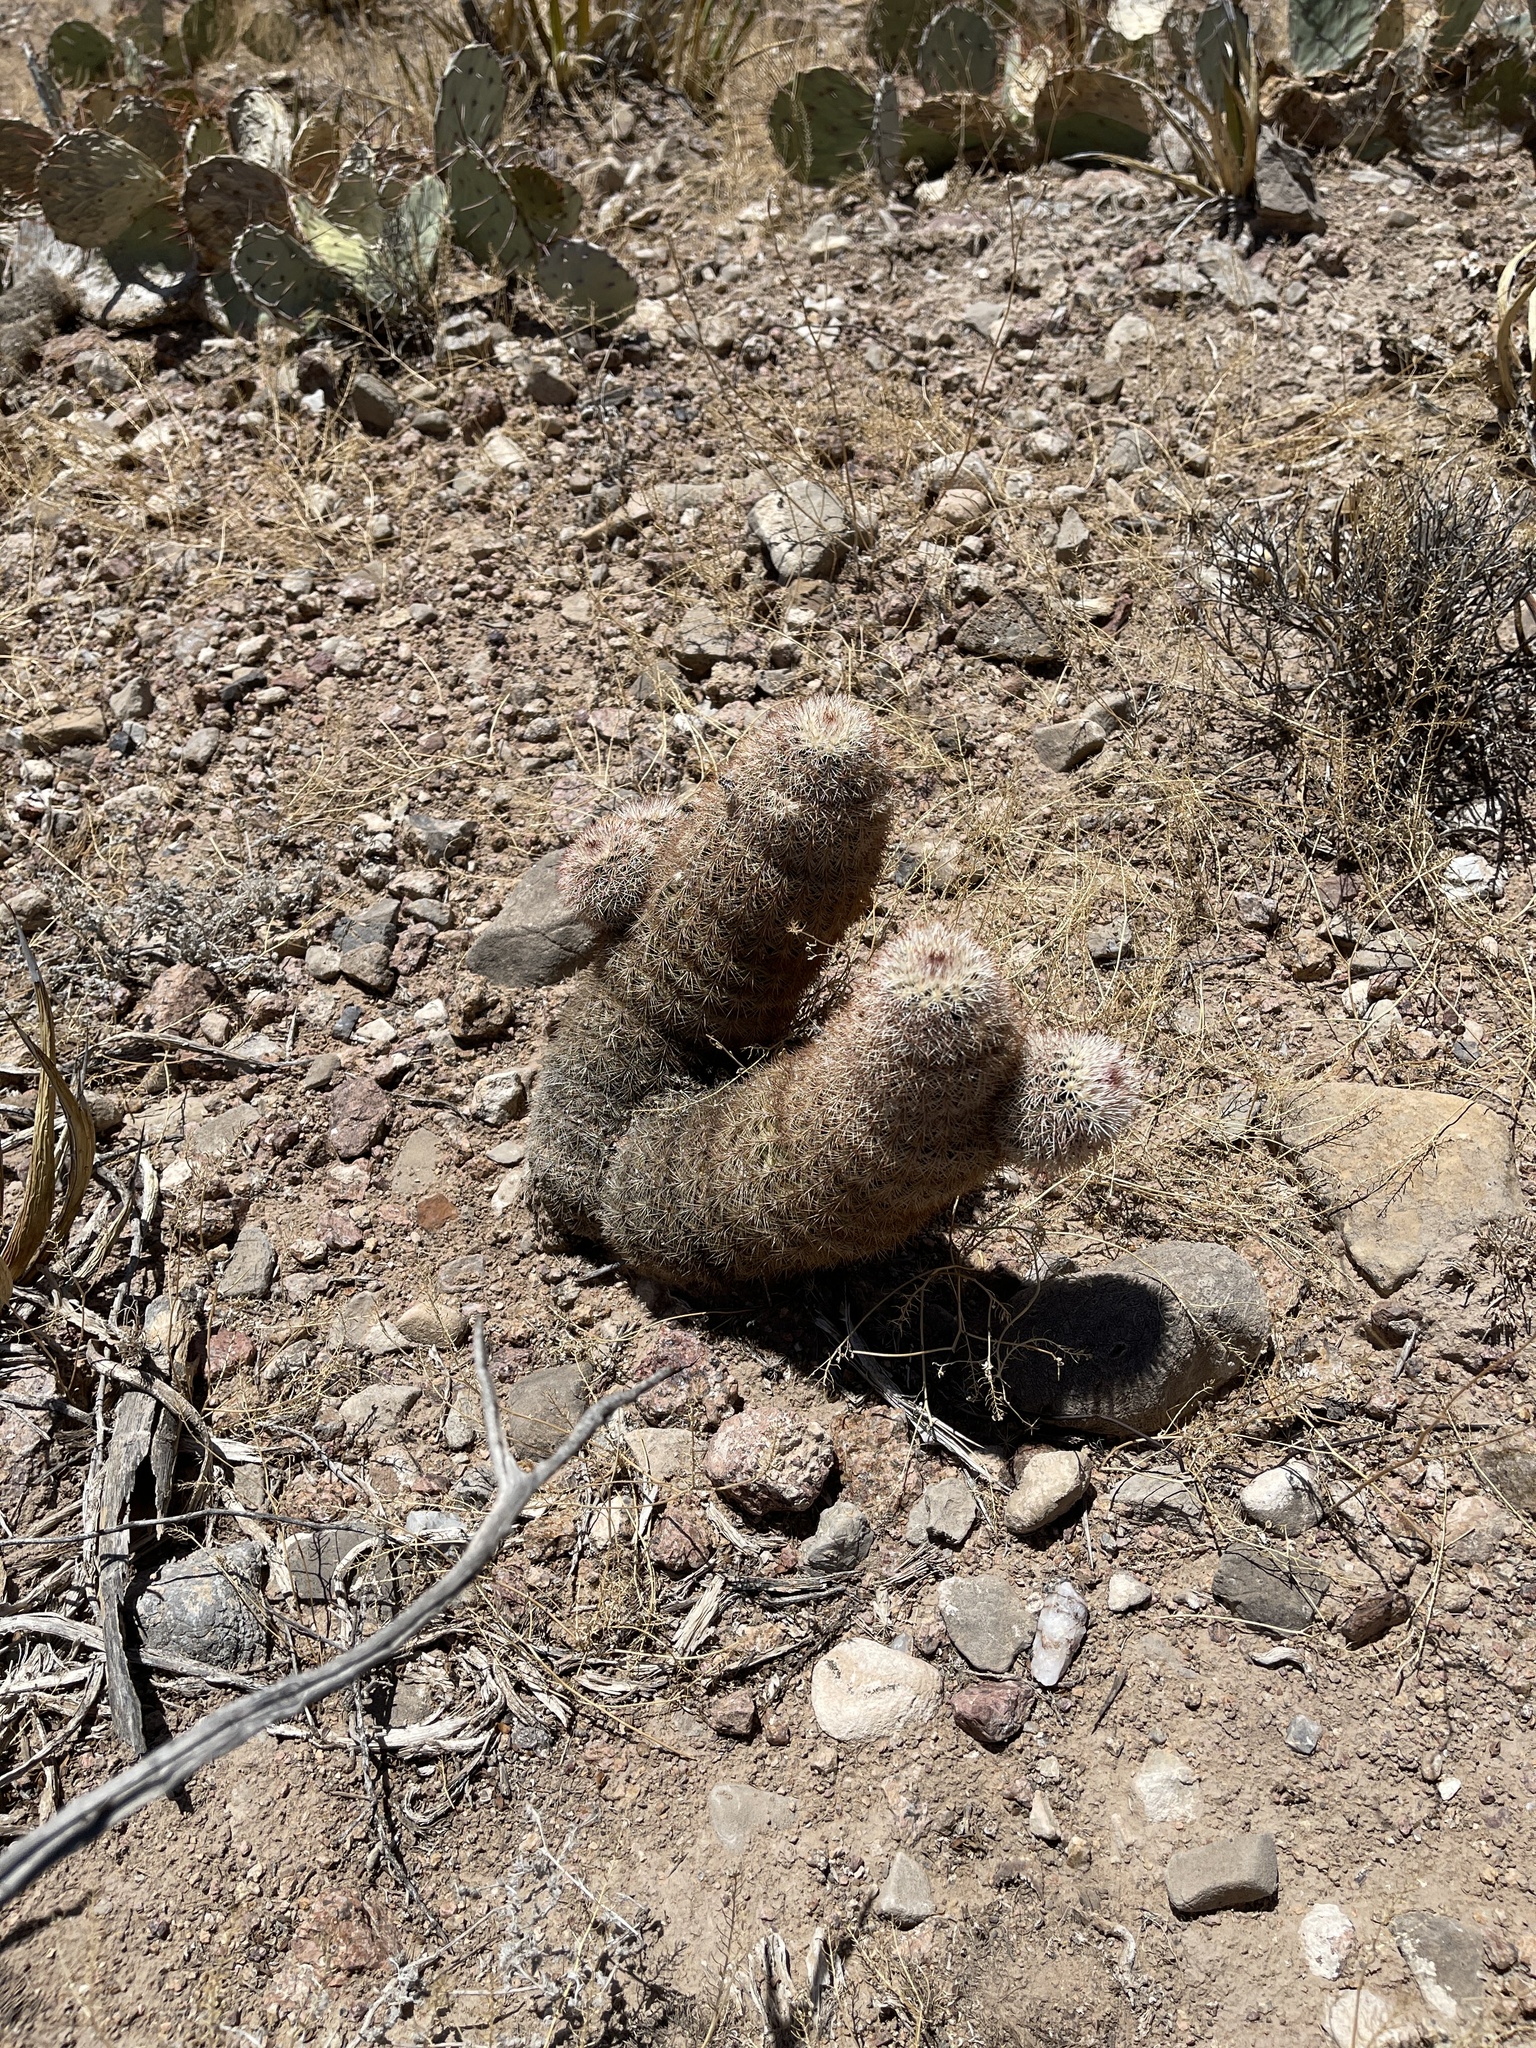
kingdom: Plantae
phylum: Tracheophyta
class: Magnoliopsida
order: Caryophyllales
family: Cactaceae
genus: Echinocereus
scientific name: Echinocereus dasyacanthus
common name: Spiny hedgehog cactus
